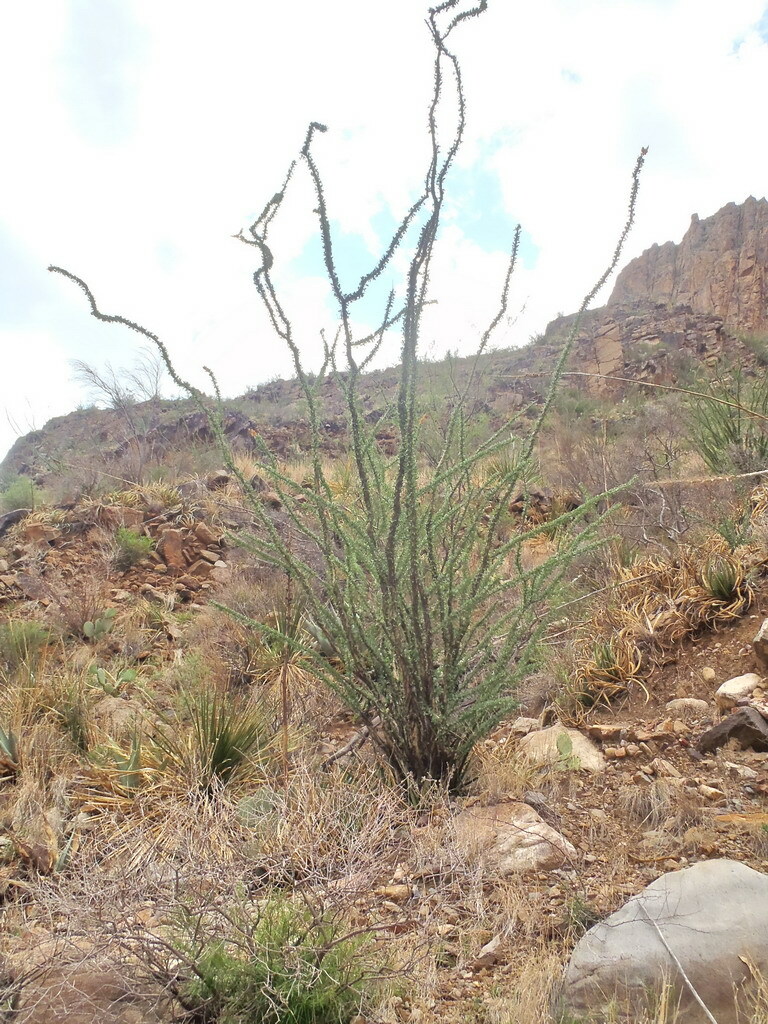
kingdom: Plantae
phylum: Tracheophyta
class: Magnoliopsida
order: Ericales
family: Fouquieriaceae
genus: Fouquieria
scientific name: Fouquieria splendens
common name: Vine-cactus
